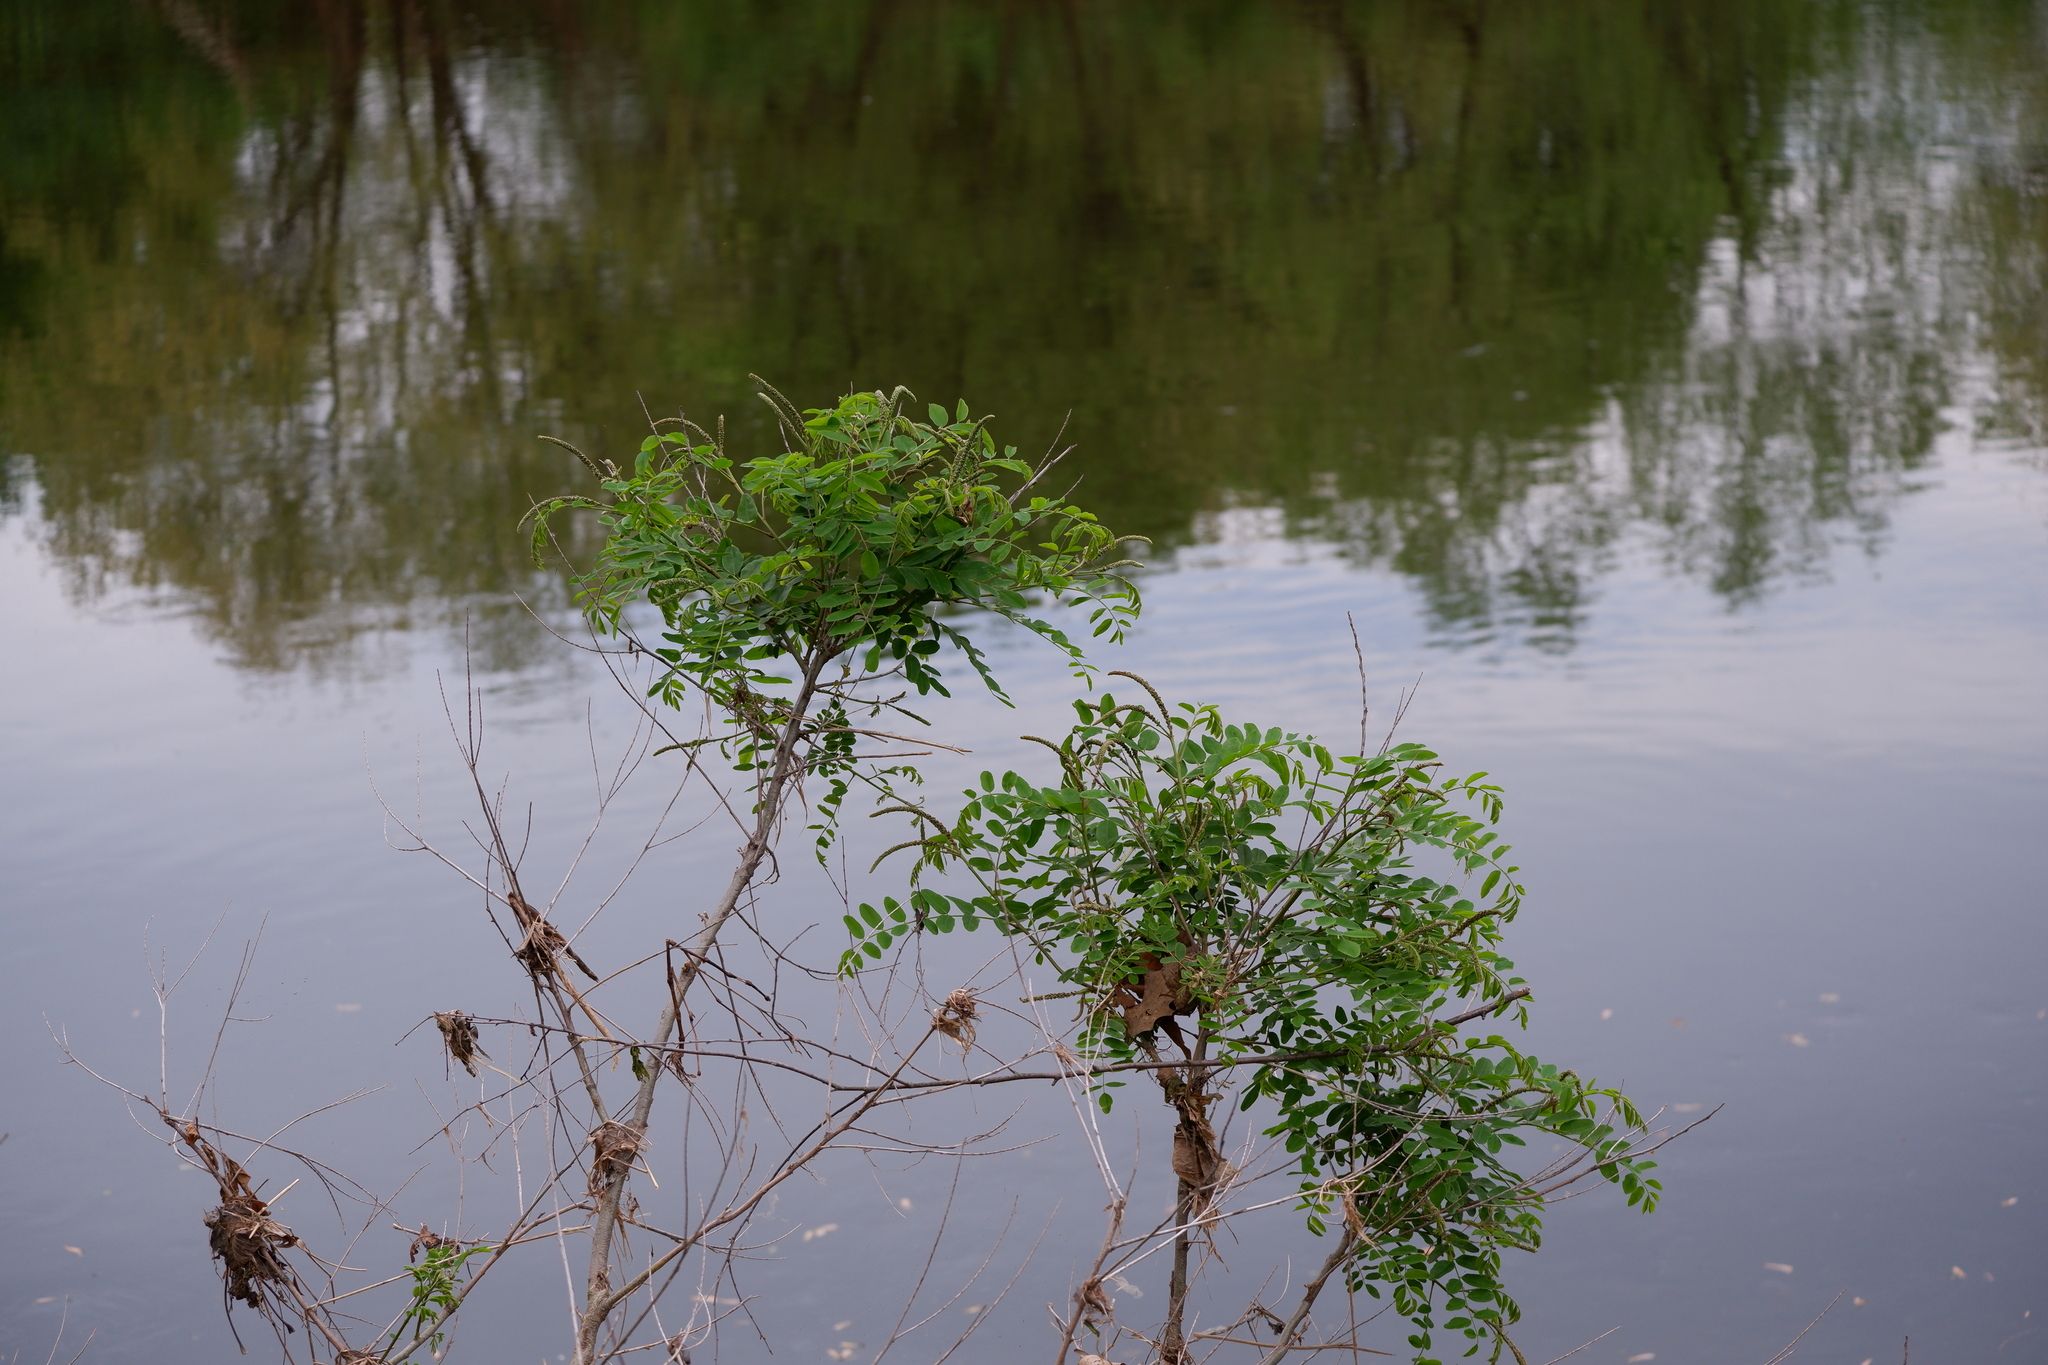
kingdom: Plantae
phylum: Tracheophyta
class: Magnoliopsida
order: Fabales
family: Fabaceae
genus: Amorpha
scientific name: Amorpha fruticosa
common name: False indigo
